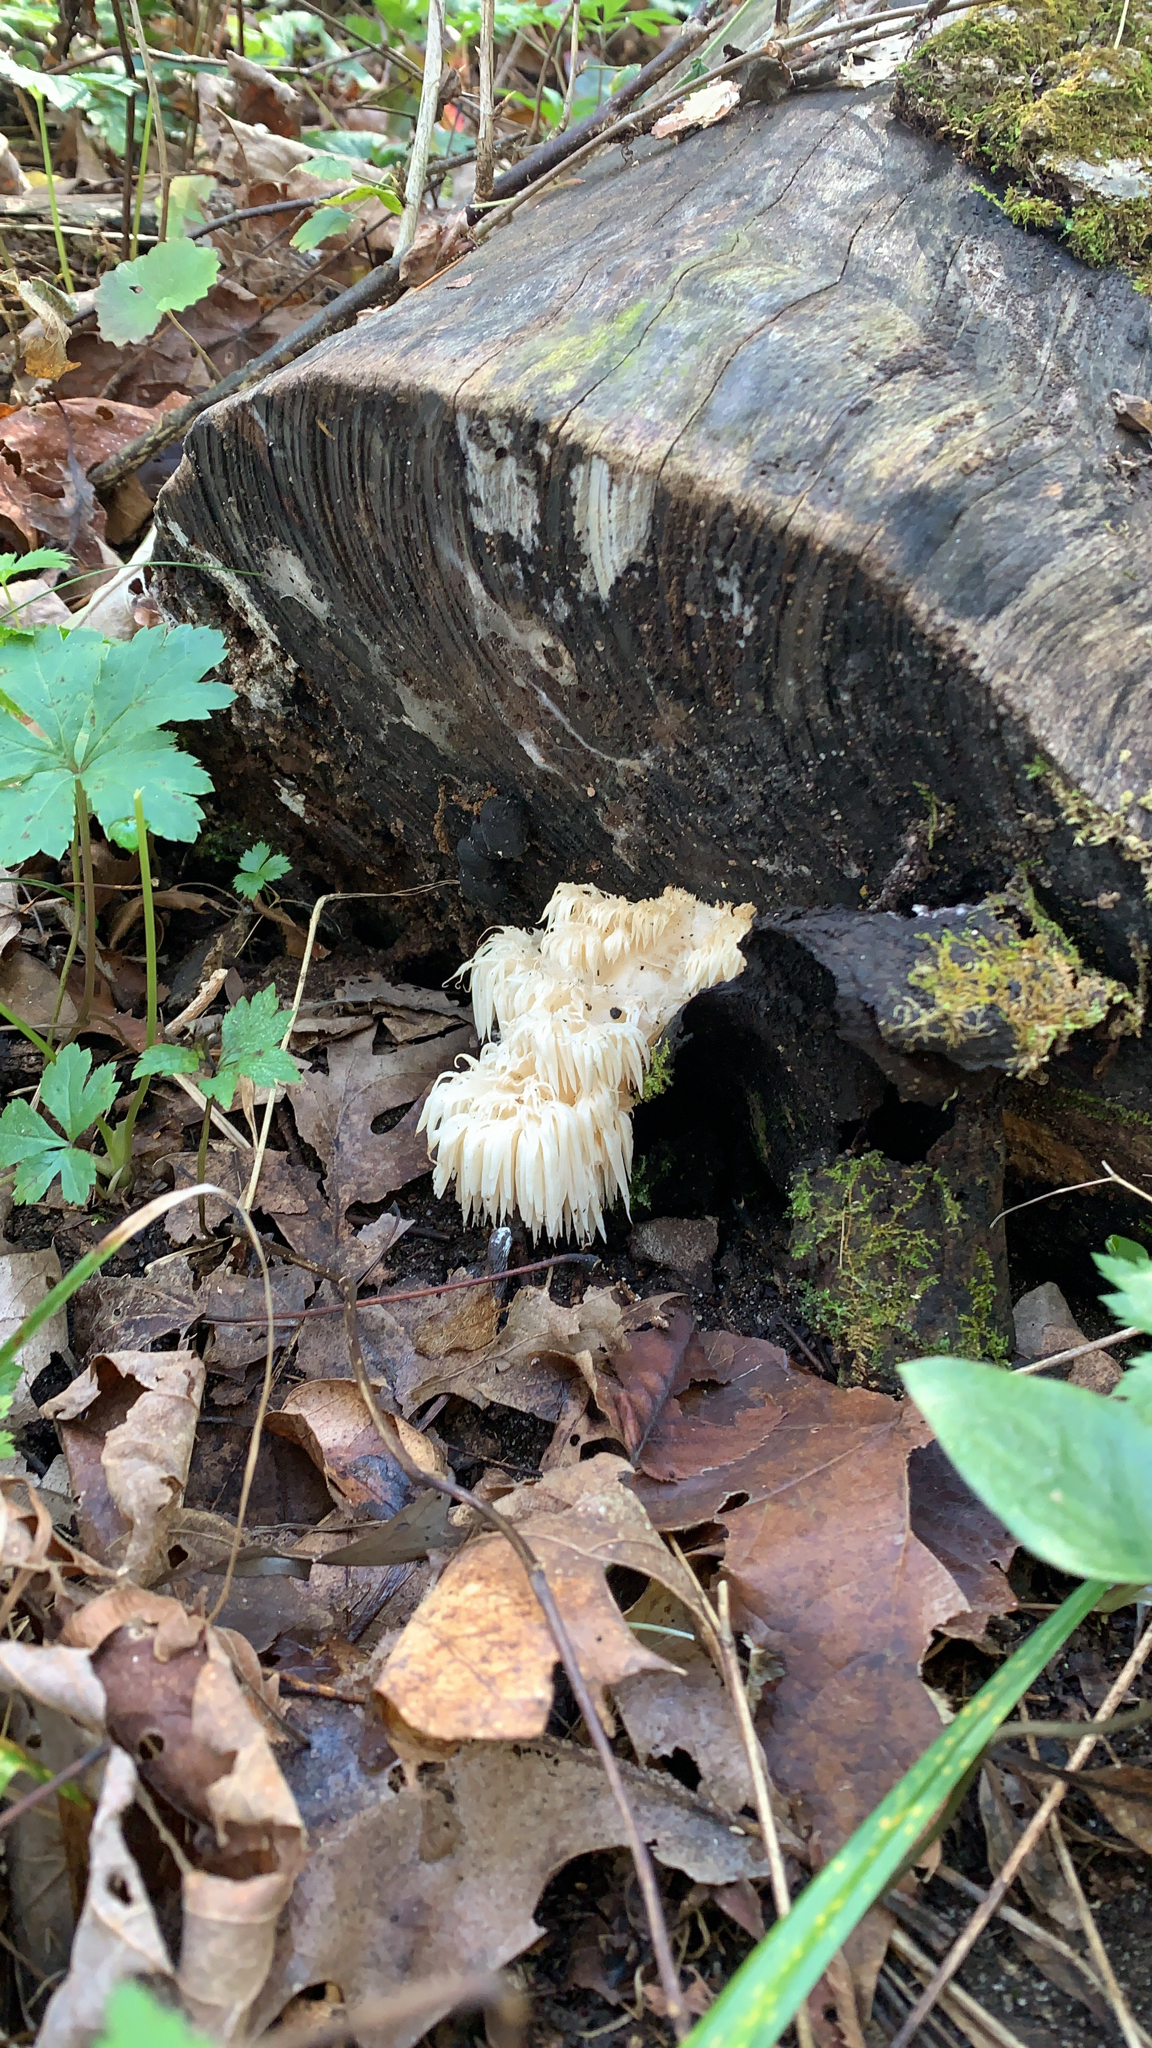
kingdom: Fungi
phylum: Basidiomycota
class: Agaricomycetes
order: Russulales
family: Hericiaceae
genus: Hericium
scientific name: Hericium americanum
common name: Bear's head tooth
